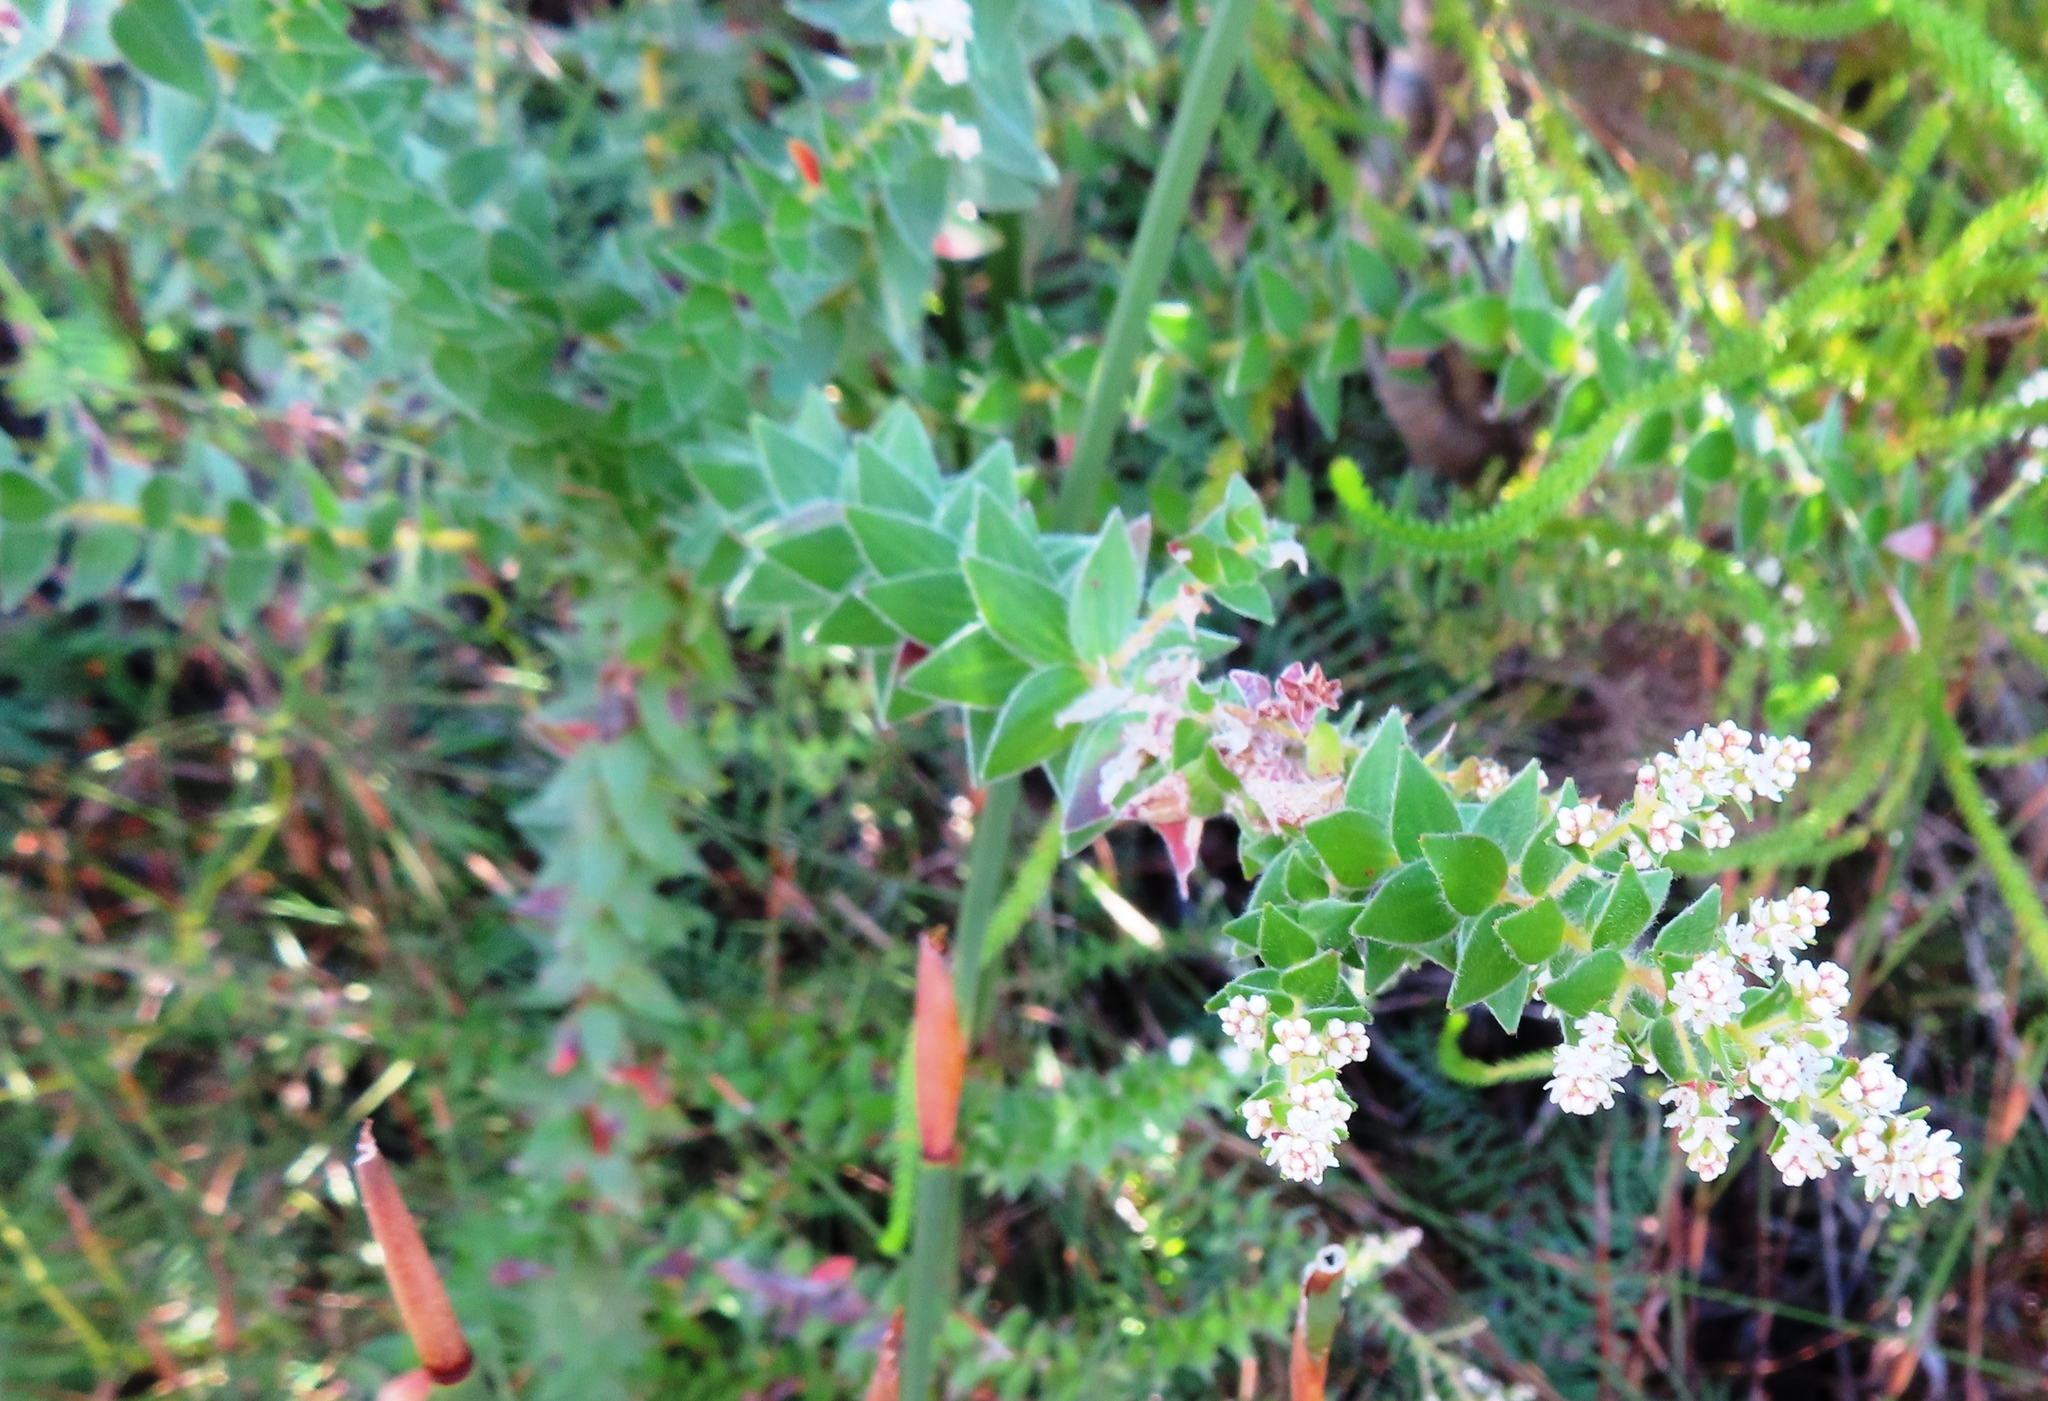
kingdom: Plantae
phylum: Tracheophyta
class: Magnoliopsida
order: Bruniales
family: Bruniaceae
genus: Brunia
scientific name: Brunia cordata
